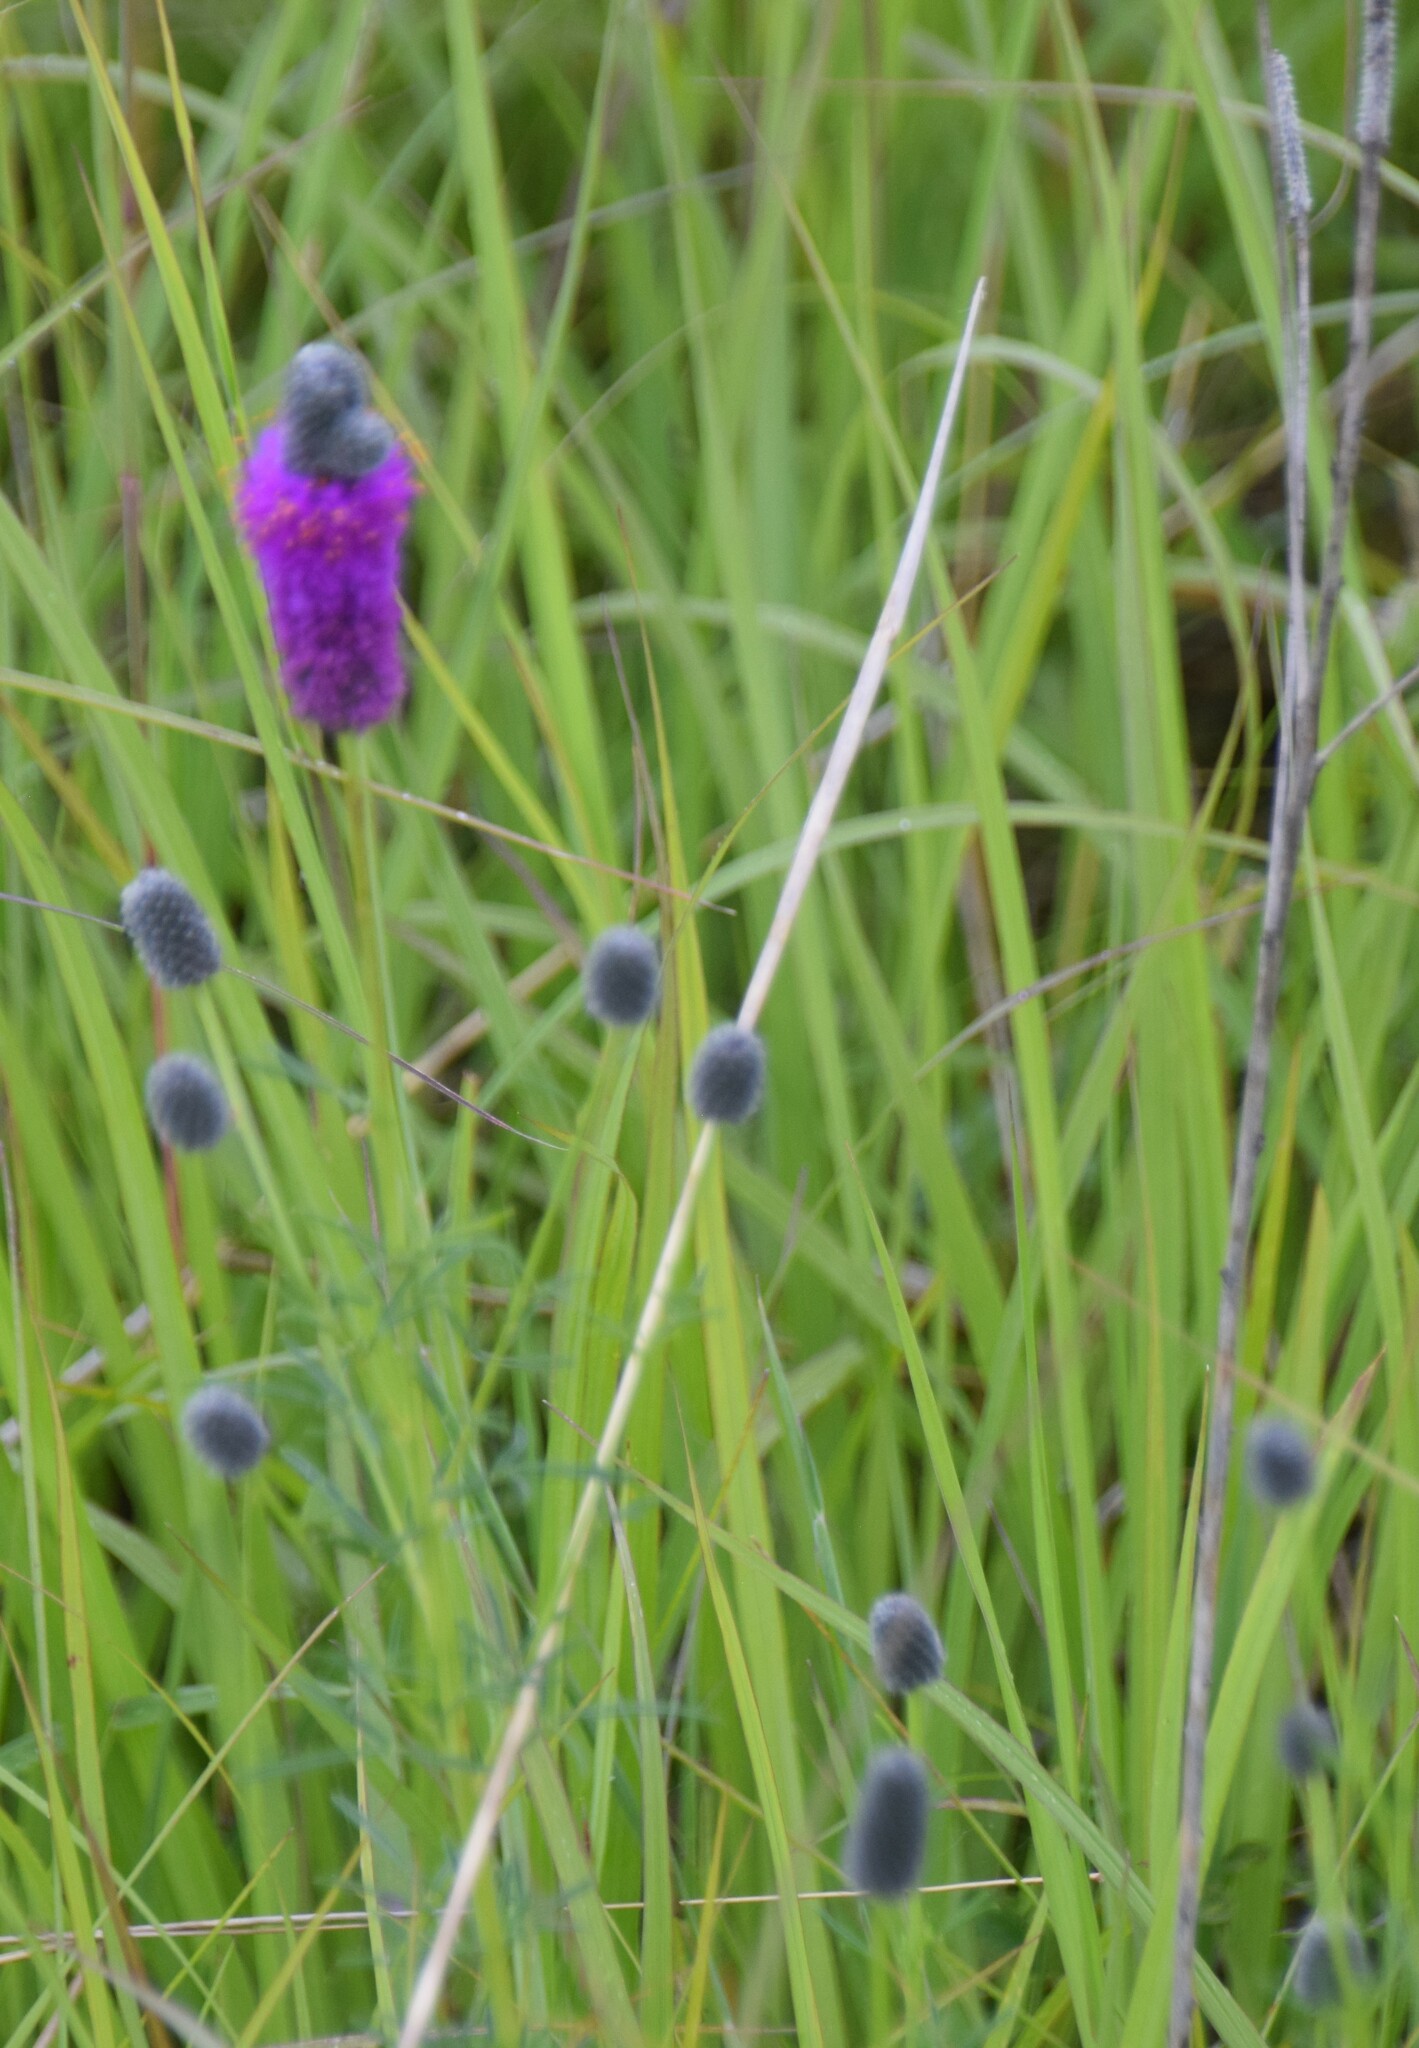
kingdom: Plantae
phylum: Tracheophyta
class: Magnoliopsida
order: Fabales
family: Fabaceae
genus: Dalea
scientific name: Dalea purpurea
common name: Purple prairie-clover
